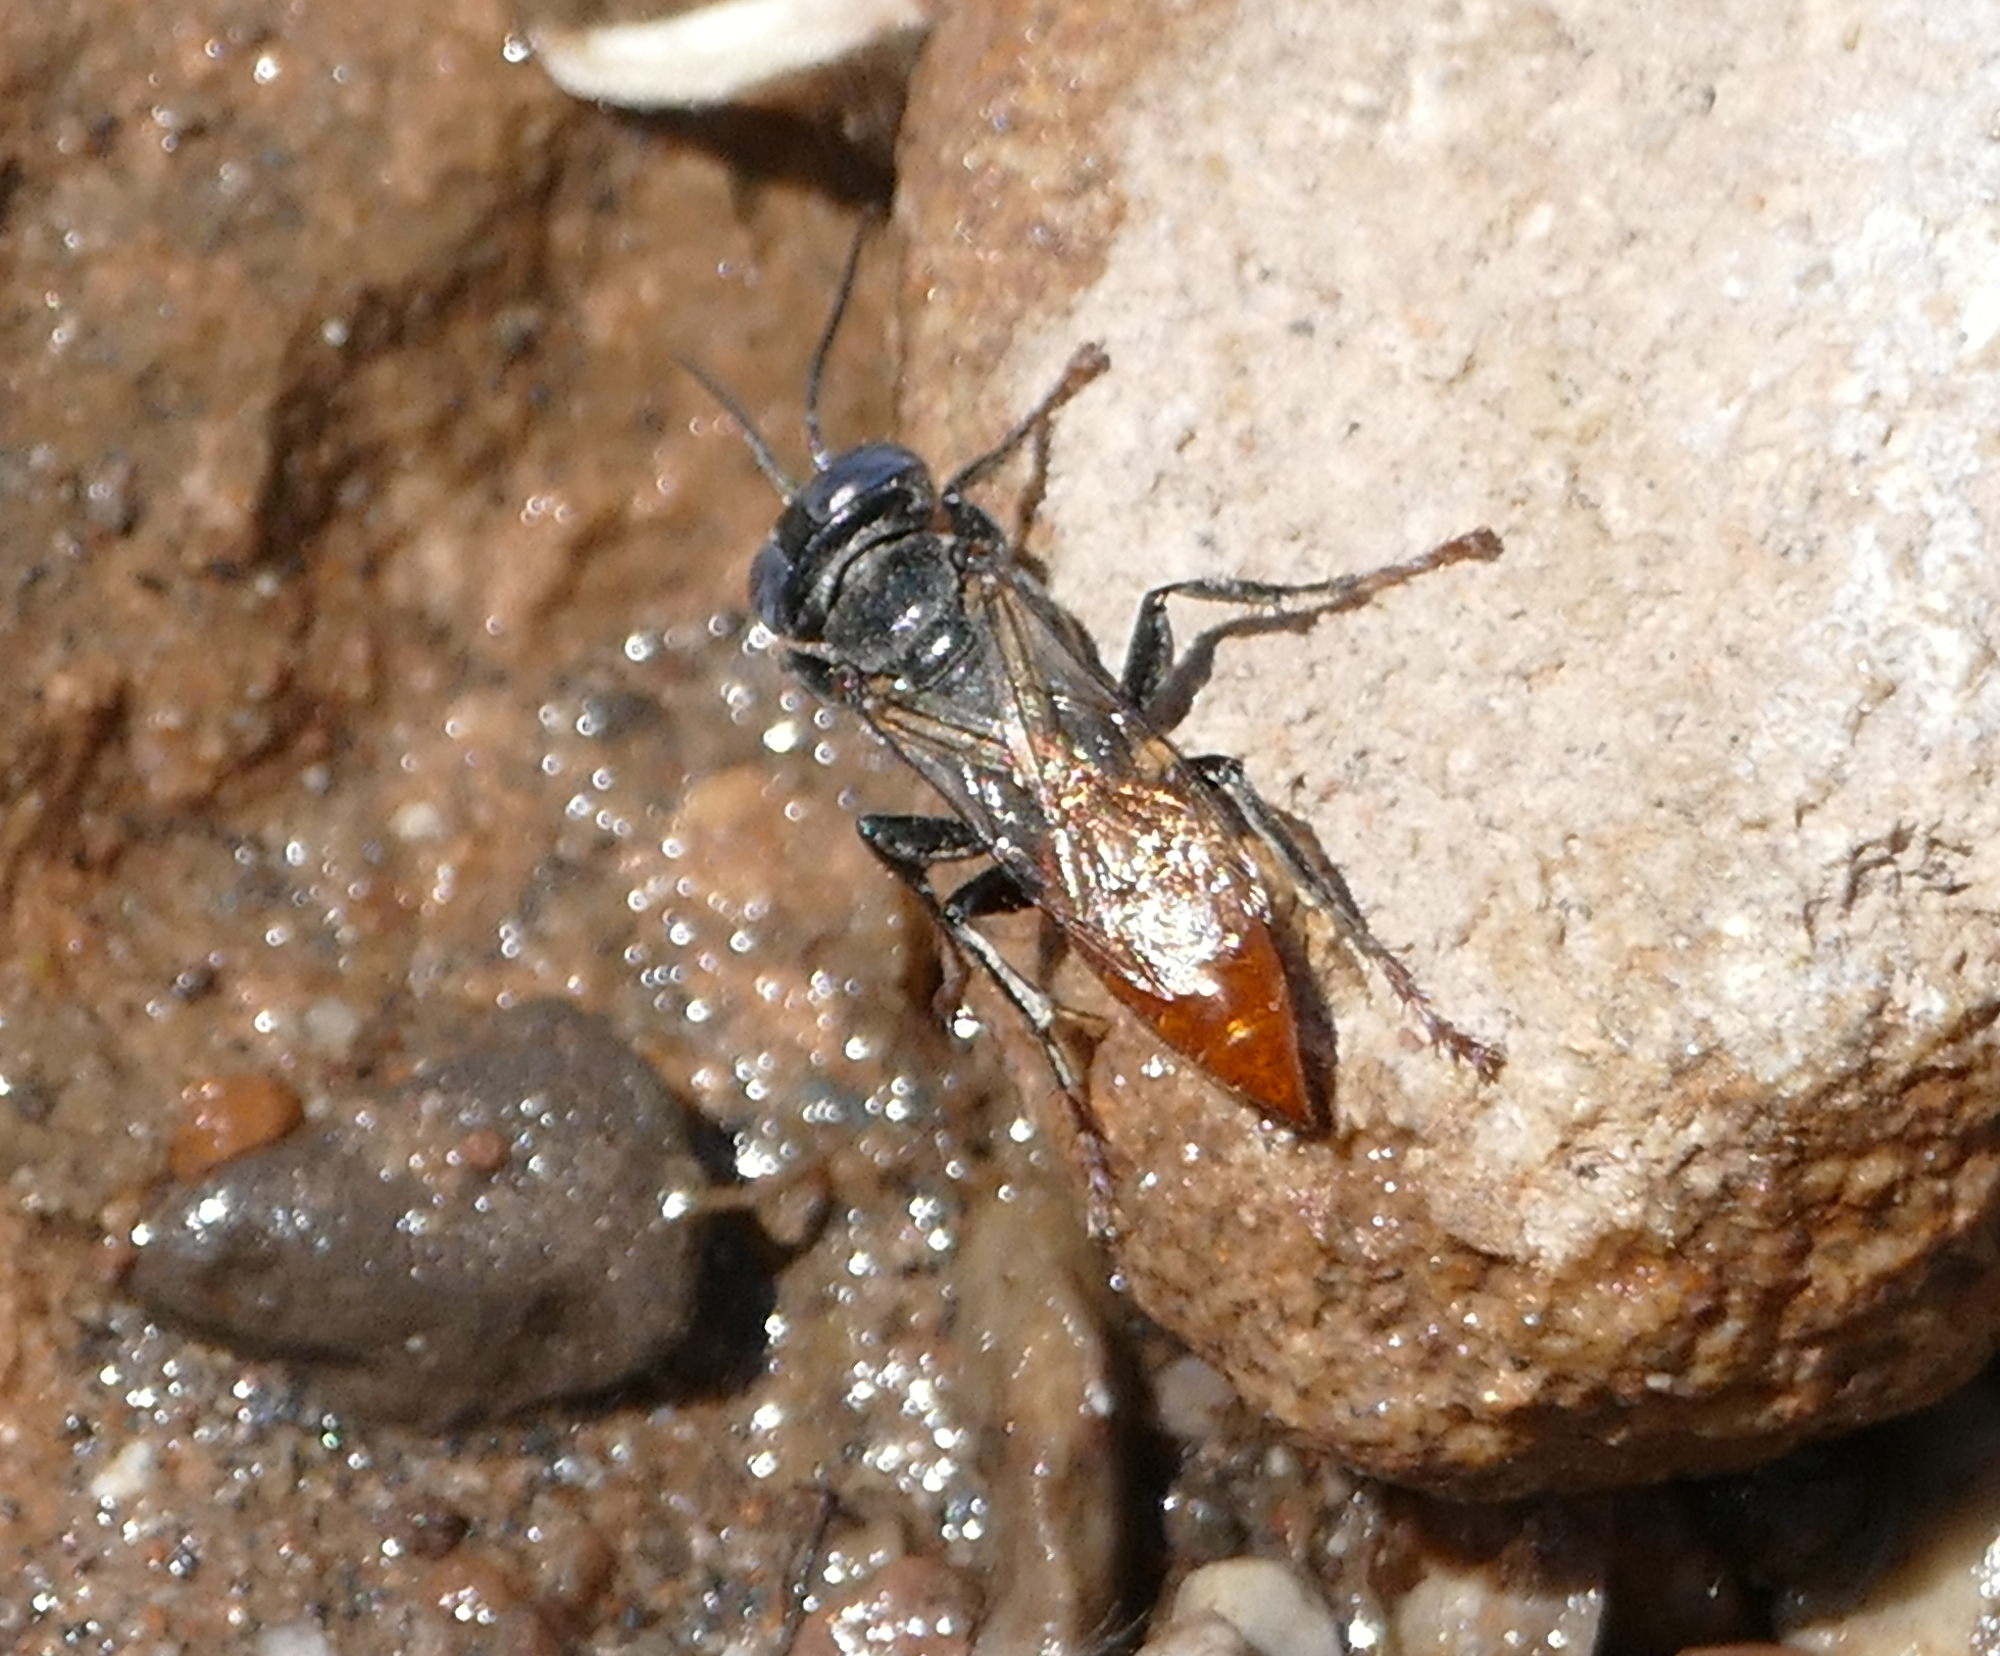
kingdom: Animalia
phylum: Arthropoda
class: Insecta
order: Hymenoptera
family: Crabronidae
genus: Tachysphex
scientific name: Tachysphex
